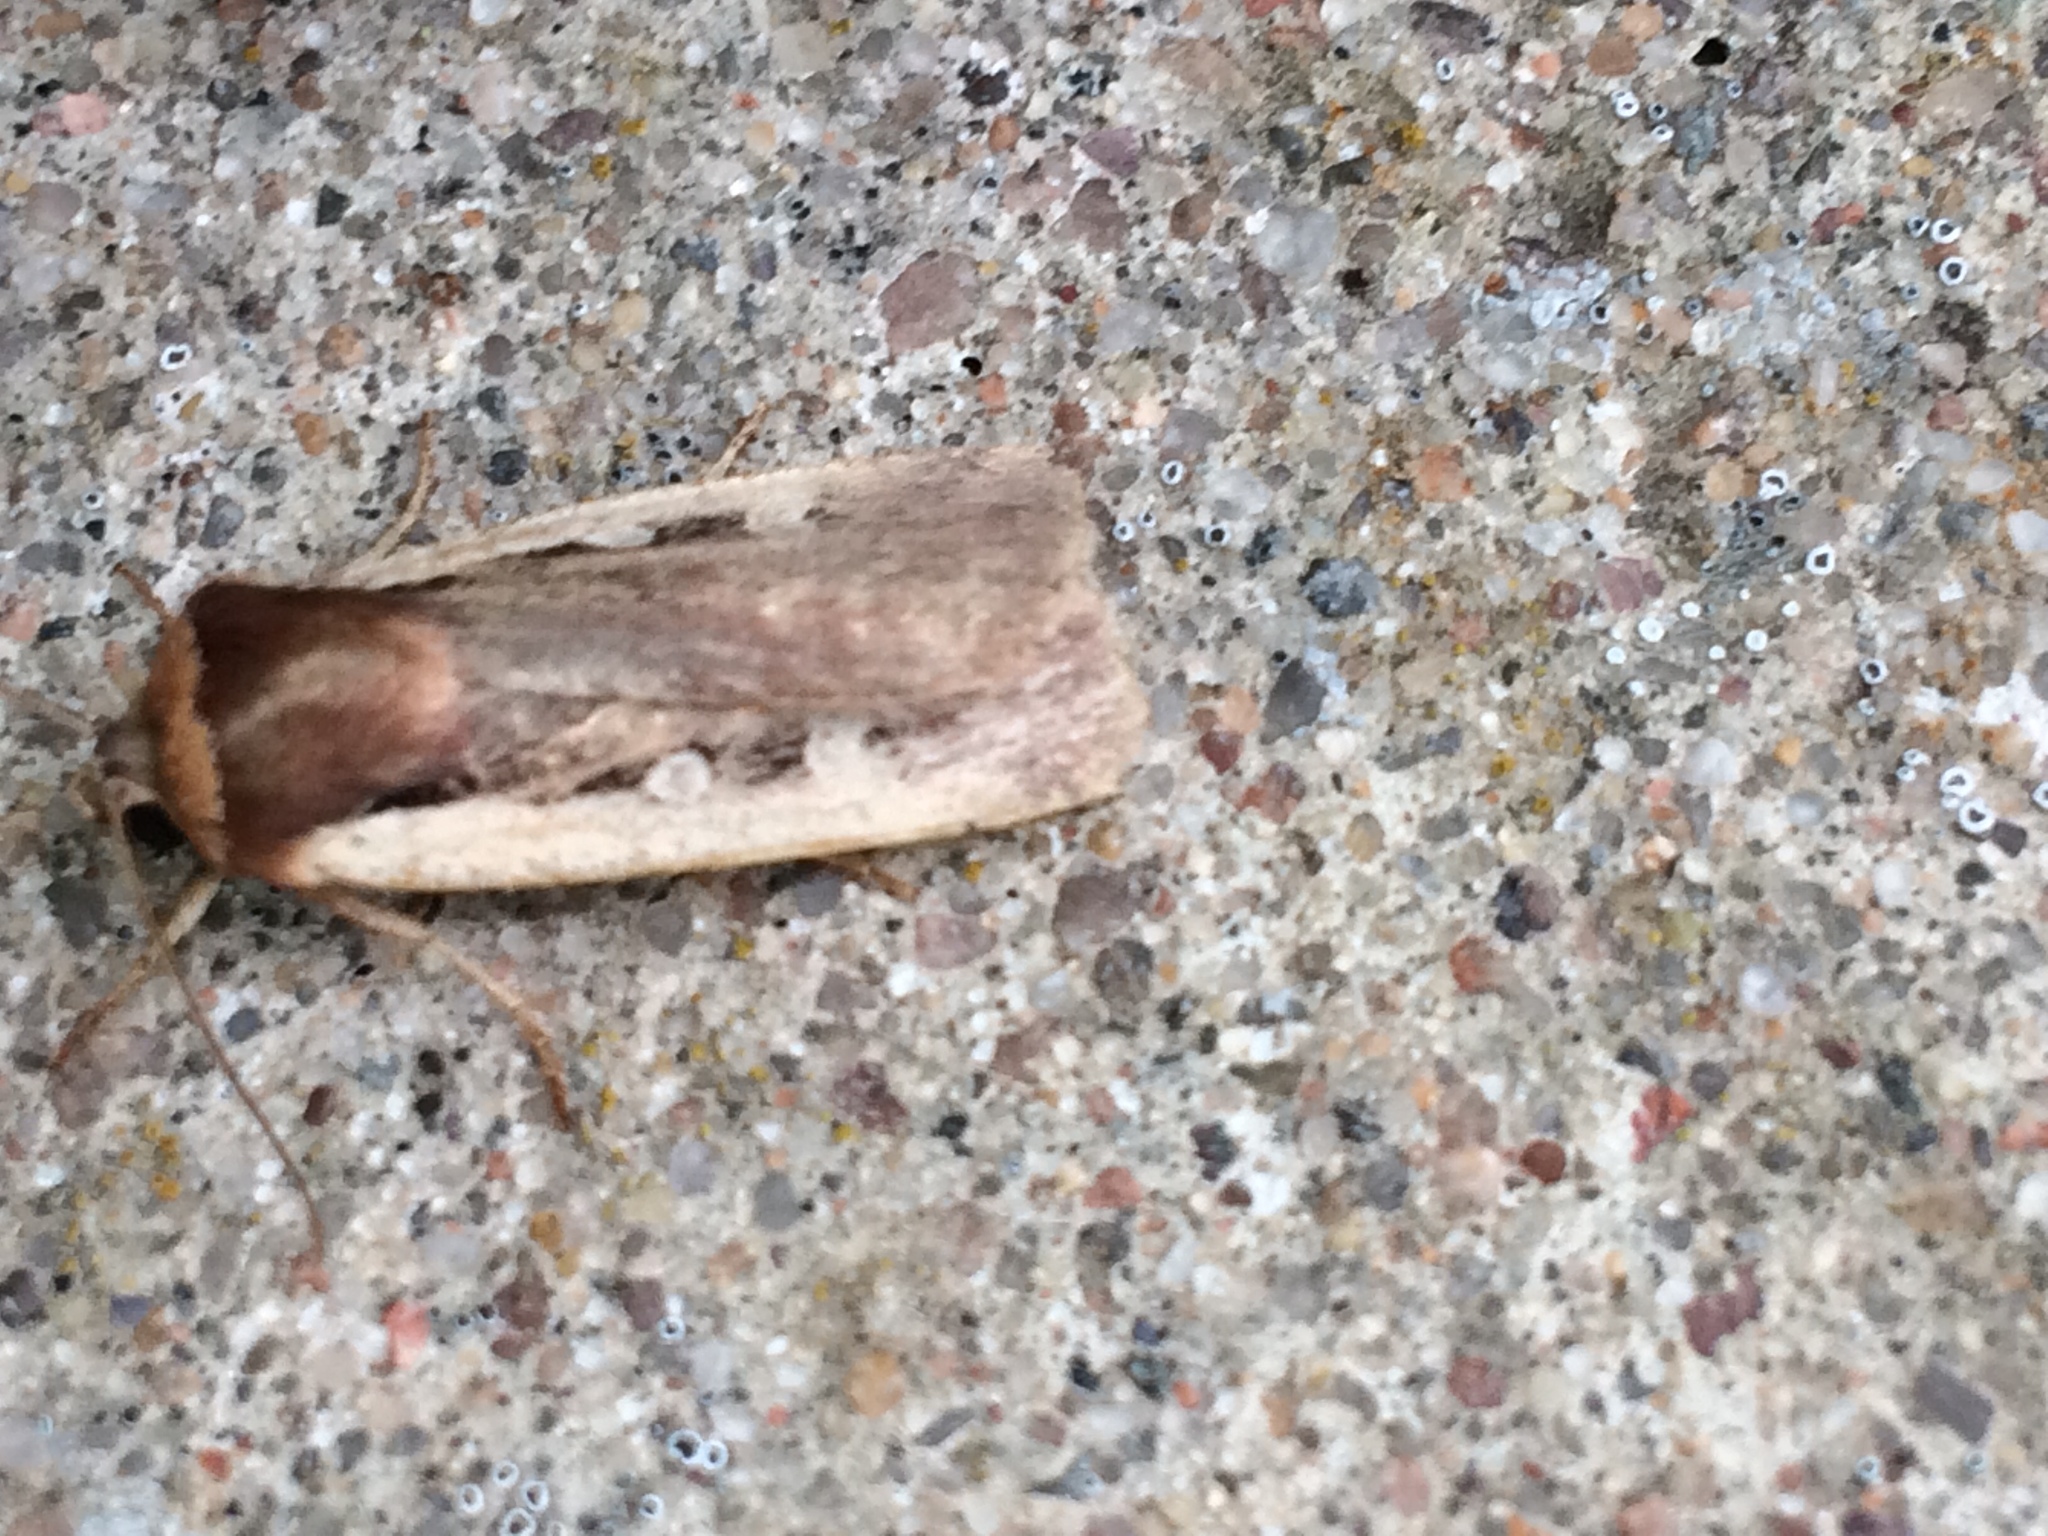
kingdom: Animalia
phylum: Arthropoda
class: Insecta
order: Lepidoptera
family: Noctuidae
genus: Ochropleura
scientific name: Ochropleura plecta
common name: Flame shoulder
